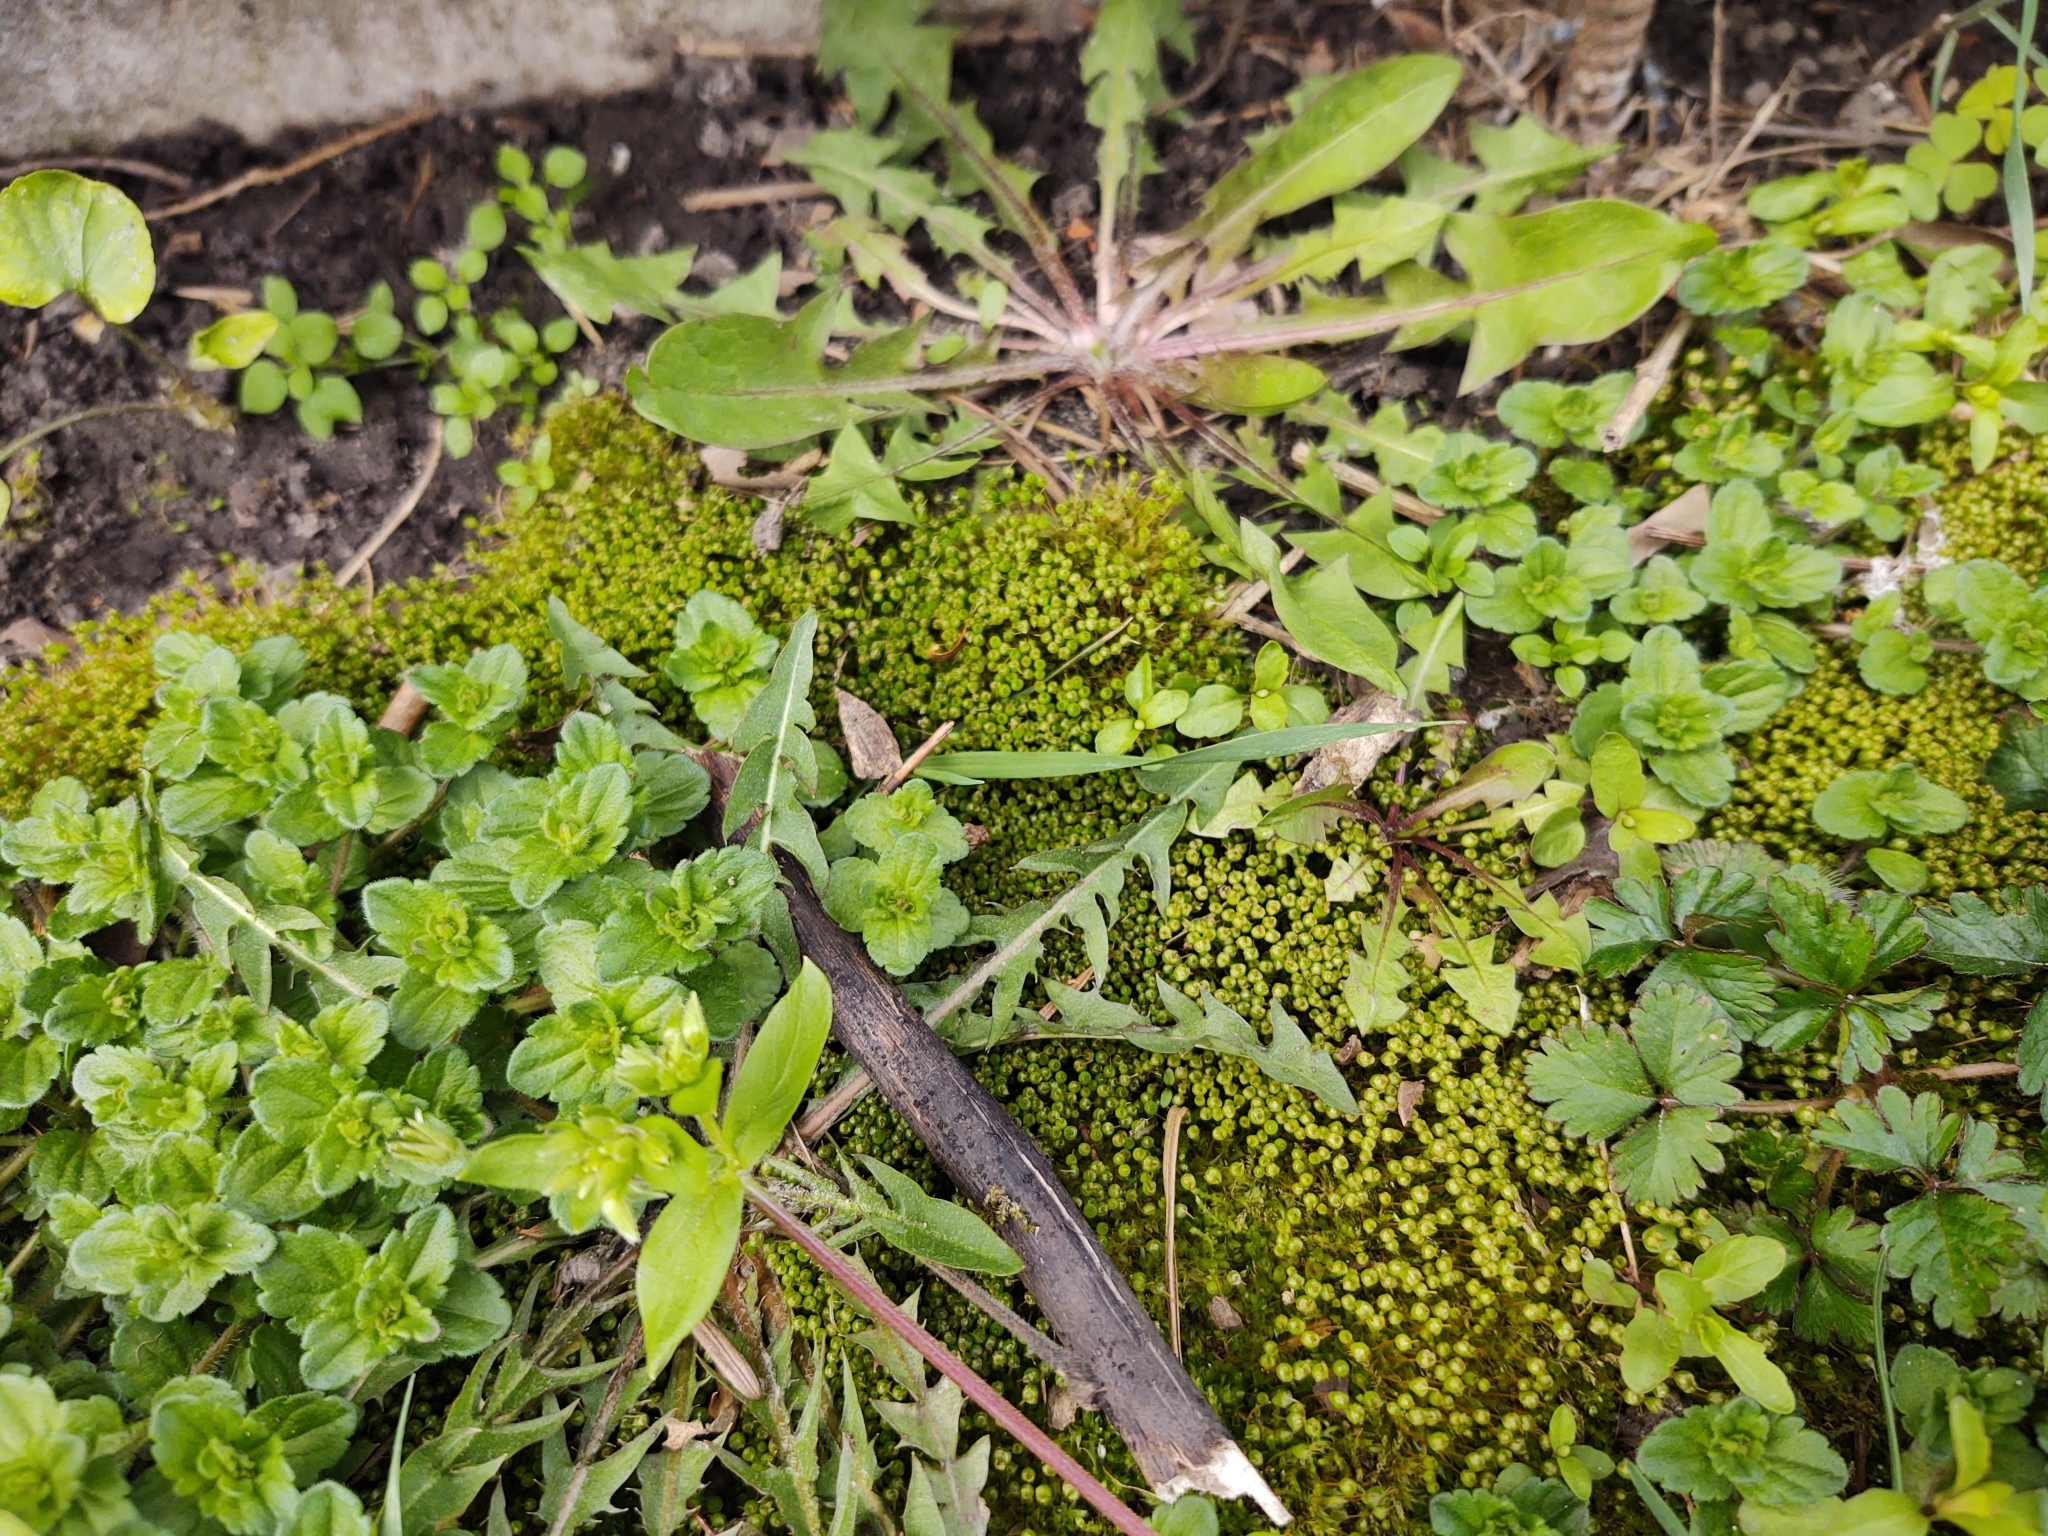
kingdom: Plantae
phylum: Bryophyta
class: Bryopsida
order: Funariales
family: Funariaceae
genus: Physcomitrium
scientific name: Physcomitrium pyriforme
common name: Common bladder-moss
